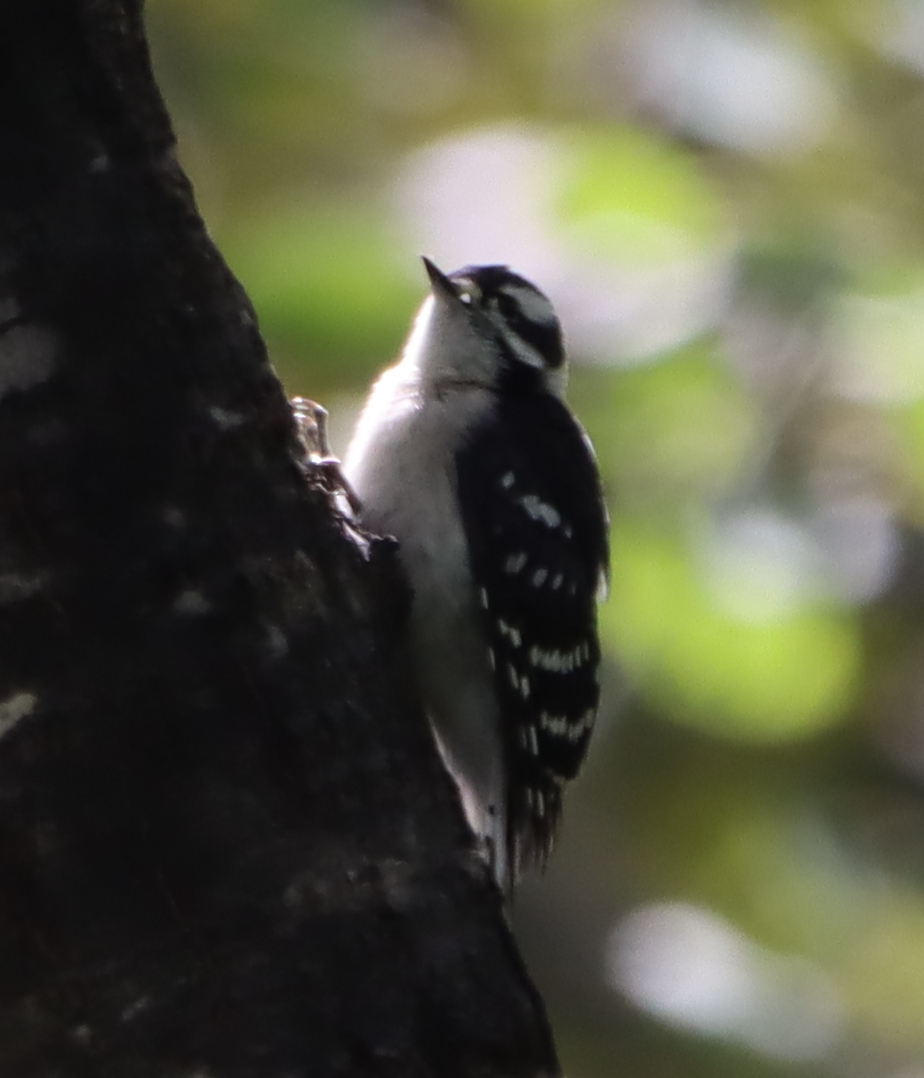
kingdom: Animalia
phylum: Chordata
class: Aves
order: Piciformes
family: Picidae
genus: Dryobates
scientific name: Dryobates pubescens
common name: Downy woodpecker
